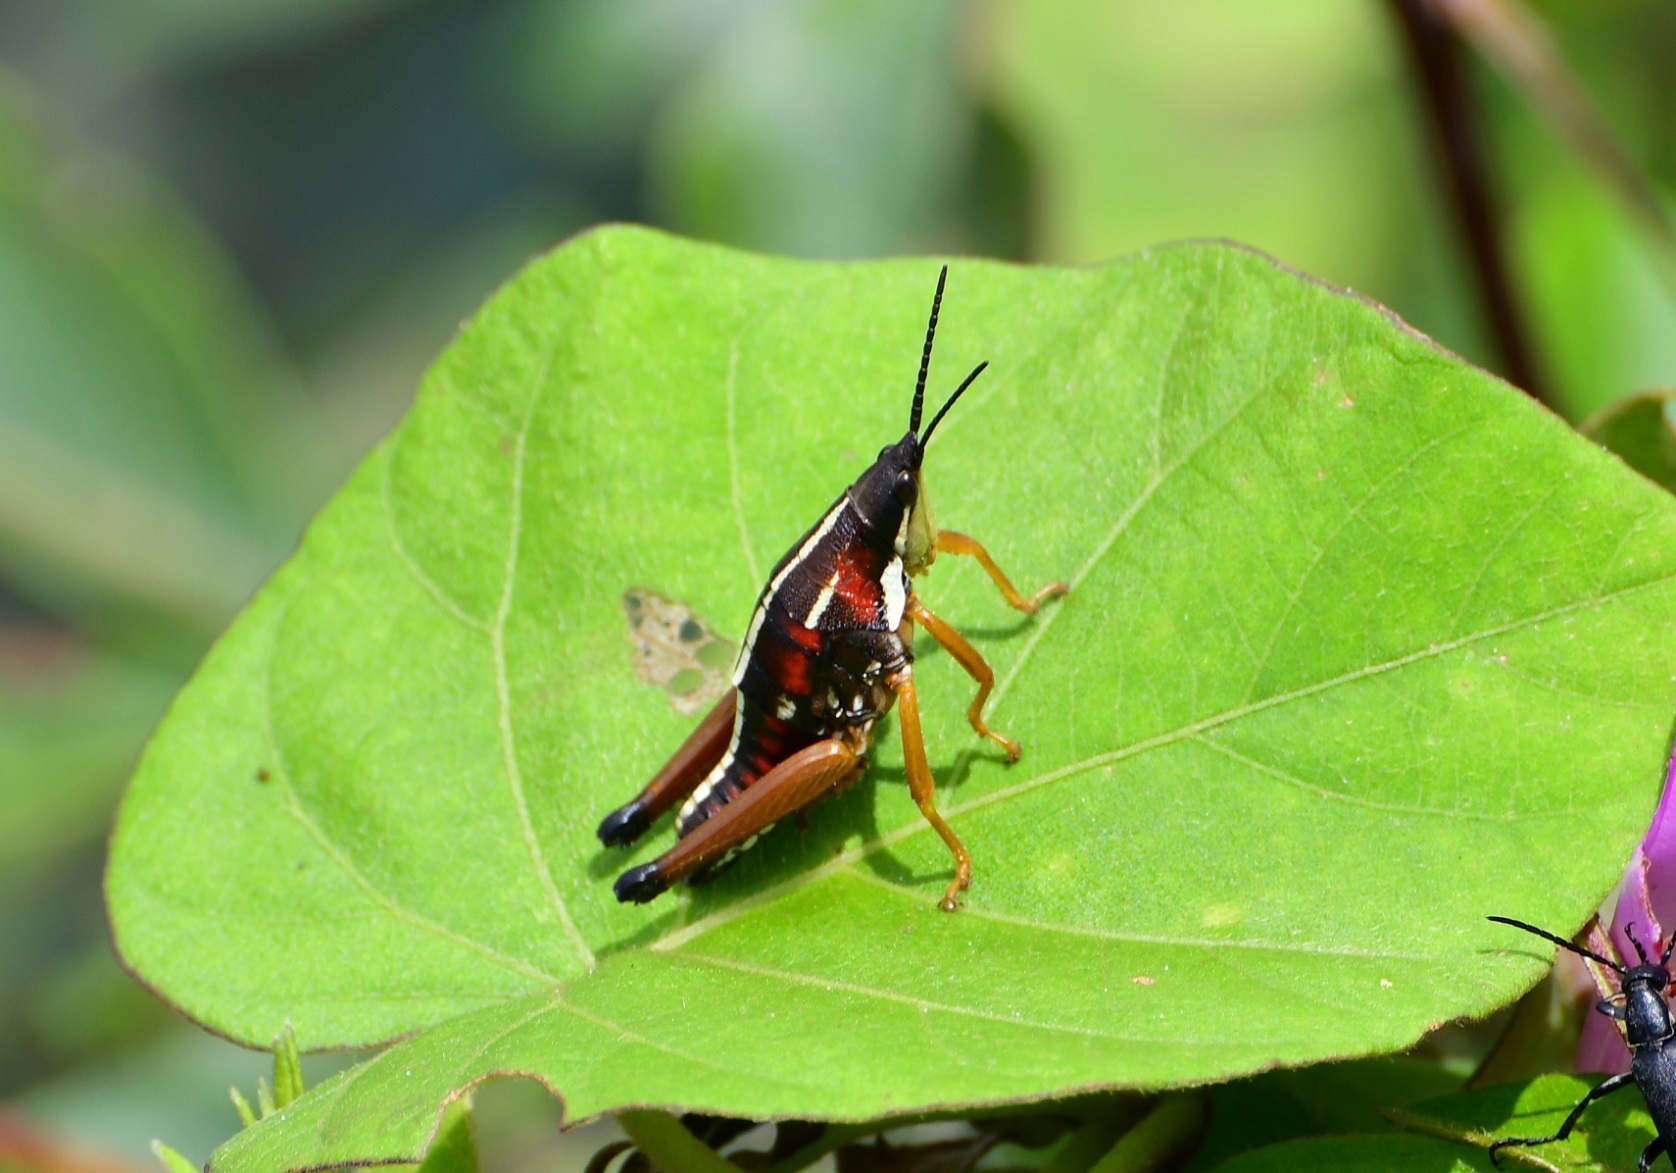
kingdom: Animalia
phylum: Arthropoda
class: Insecta
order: Orthoptera
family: Pyrgomorphidae
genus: Sphenarium
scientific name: Sphenarium histrio
